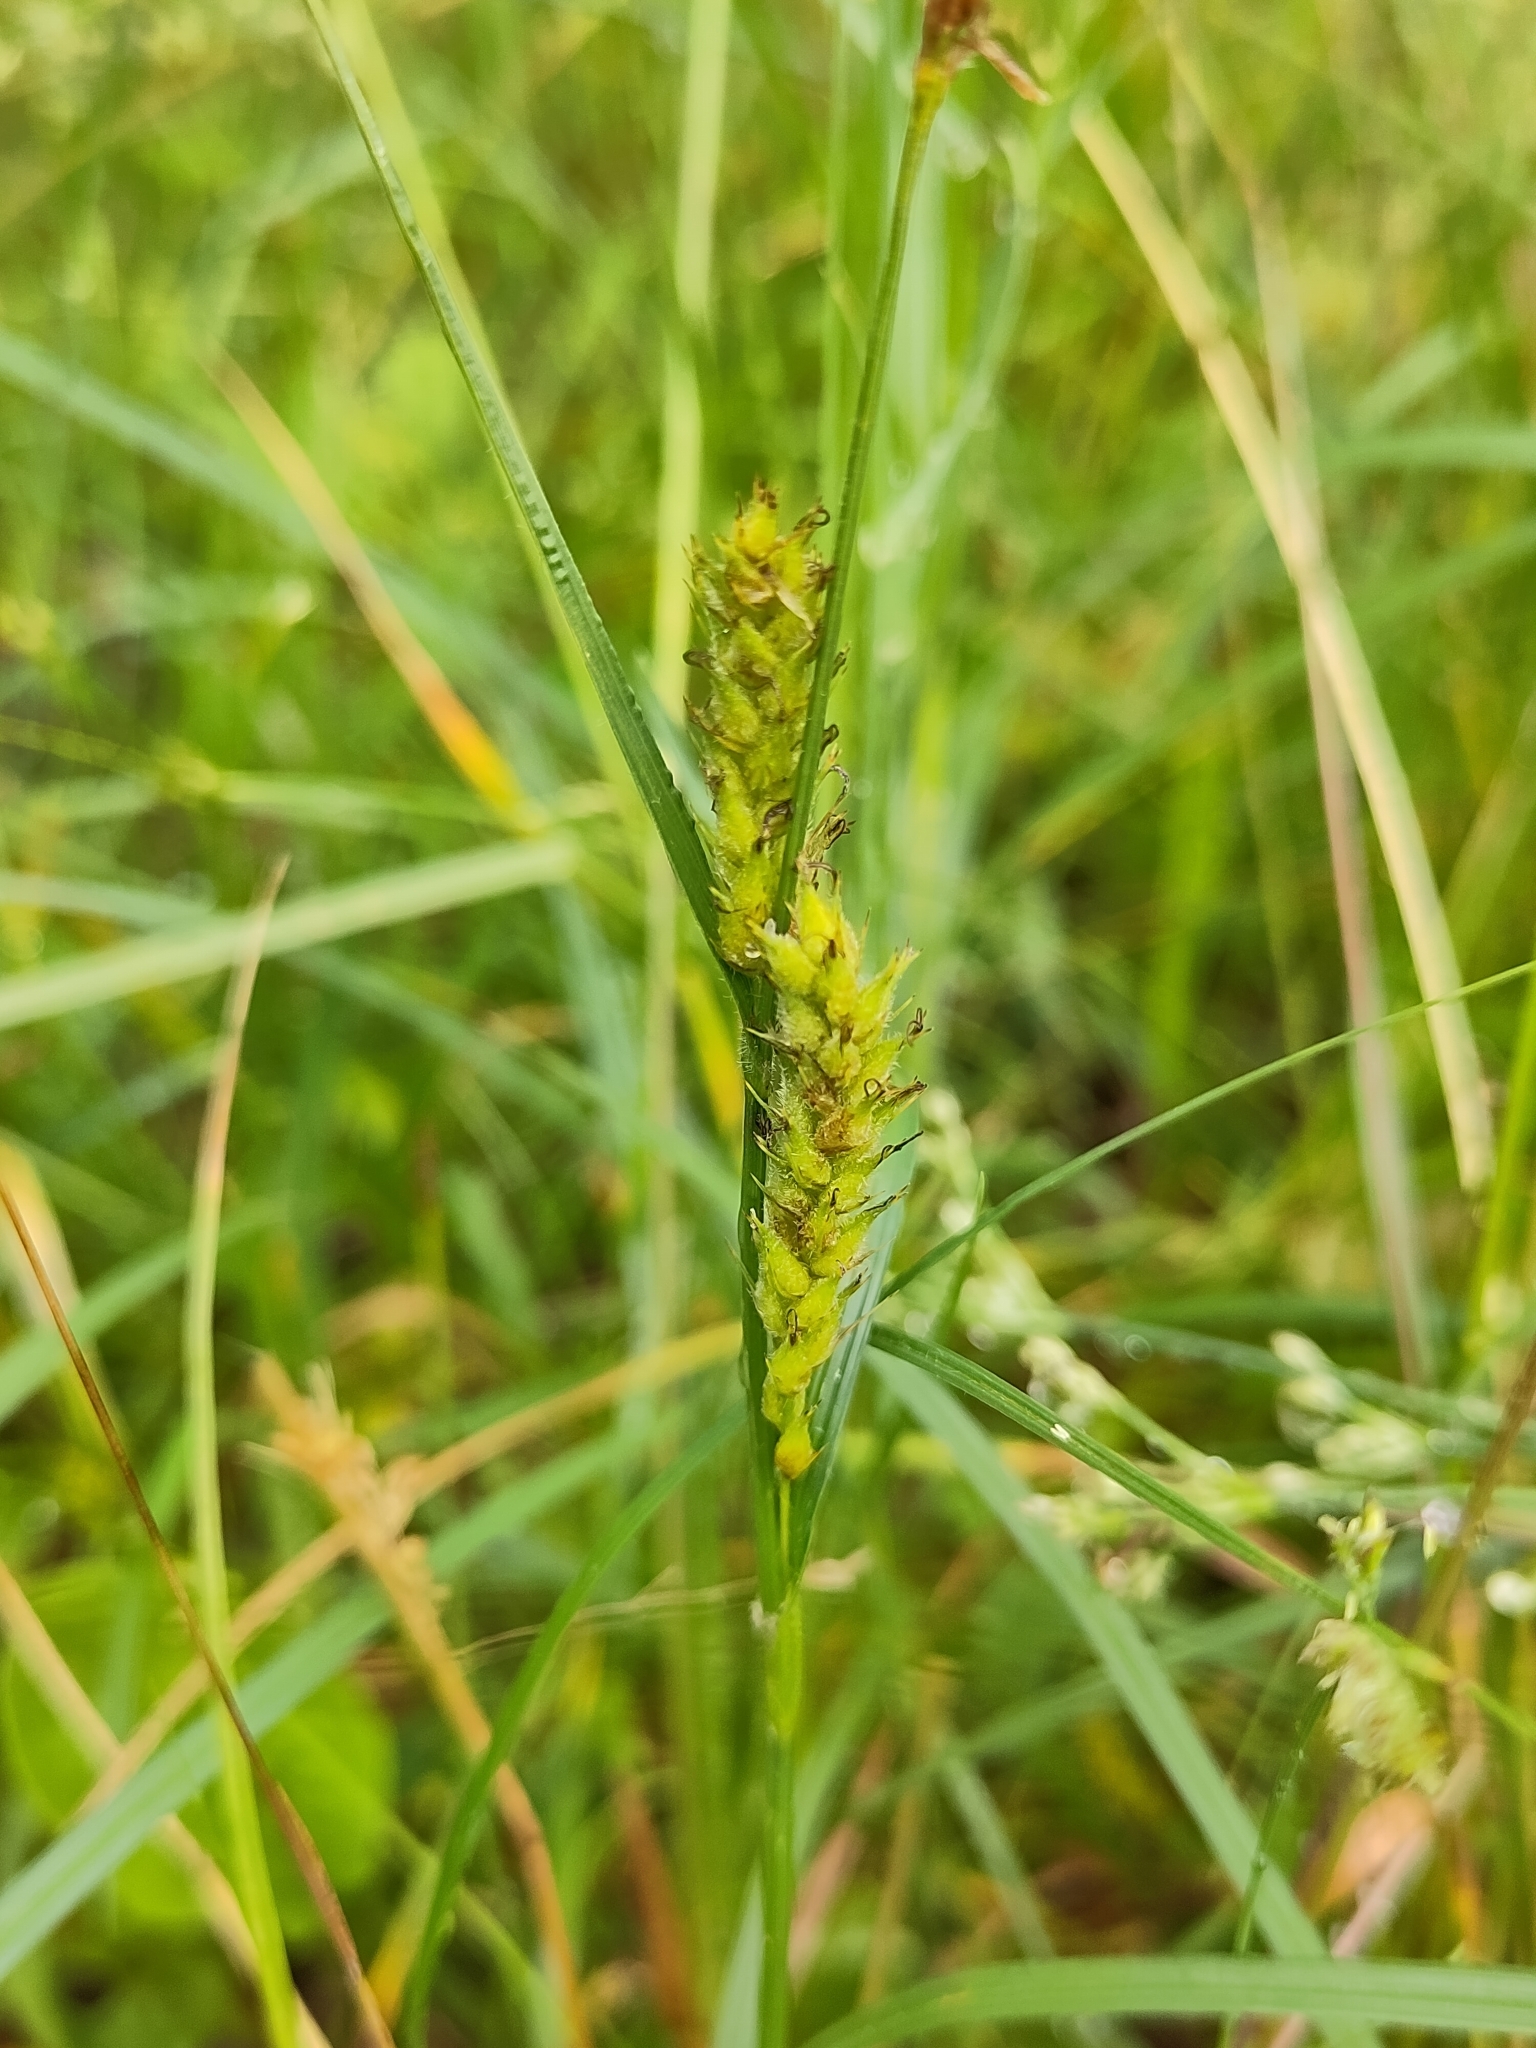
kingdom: Plantae
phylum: Tracheophyta
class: Liliopsida
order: Poales
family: Cyperaceae
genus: Carex
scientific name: Carex hirta
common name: Hairy sedge
